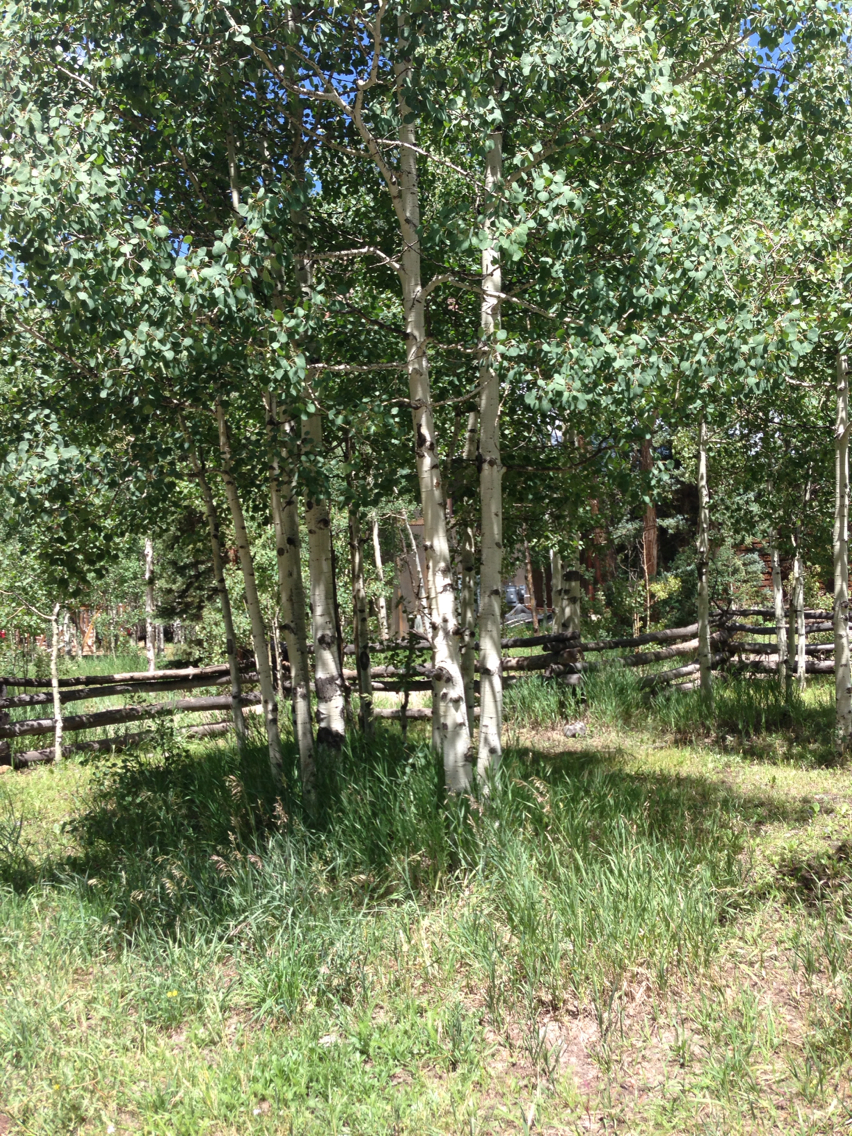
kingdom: Plantae
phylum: Tracheophyta
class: Magnoliopsida
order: Malpighiales
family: Salicaceae
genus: Populus
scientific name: Populus tremuloides
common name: Quaking aspen
